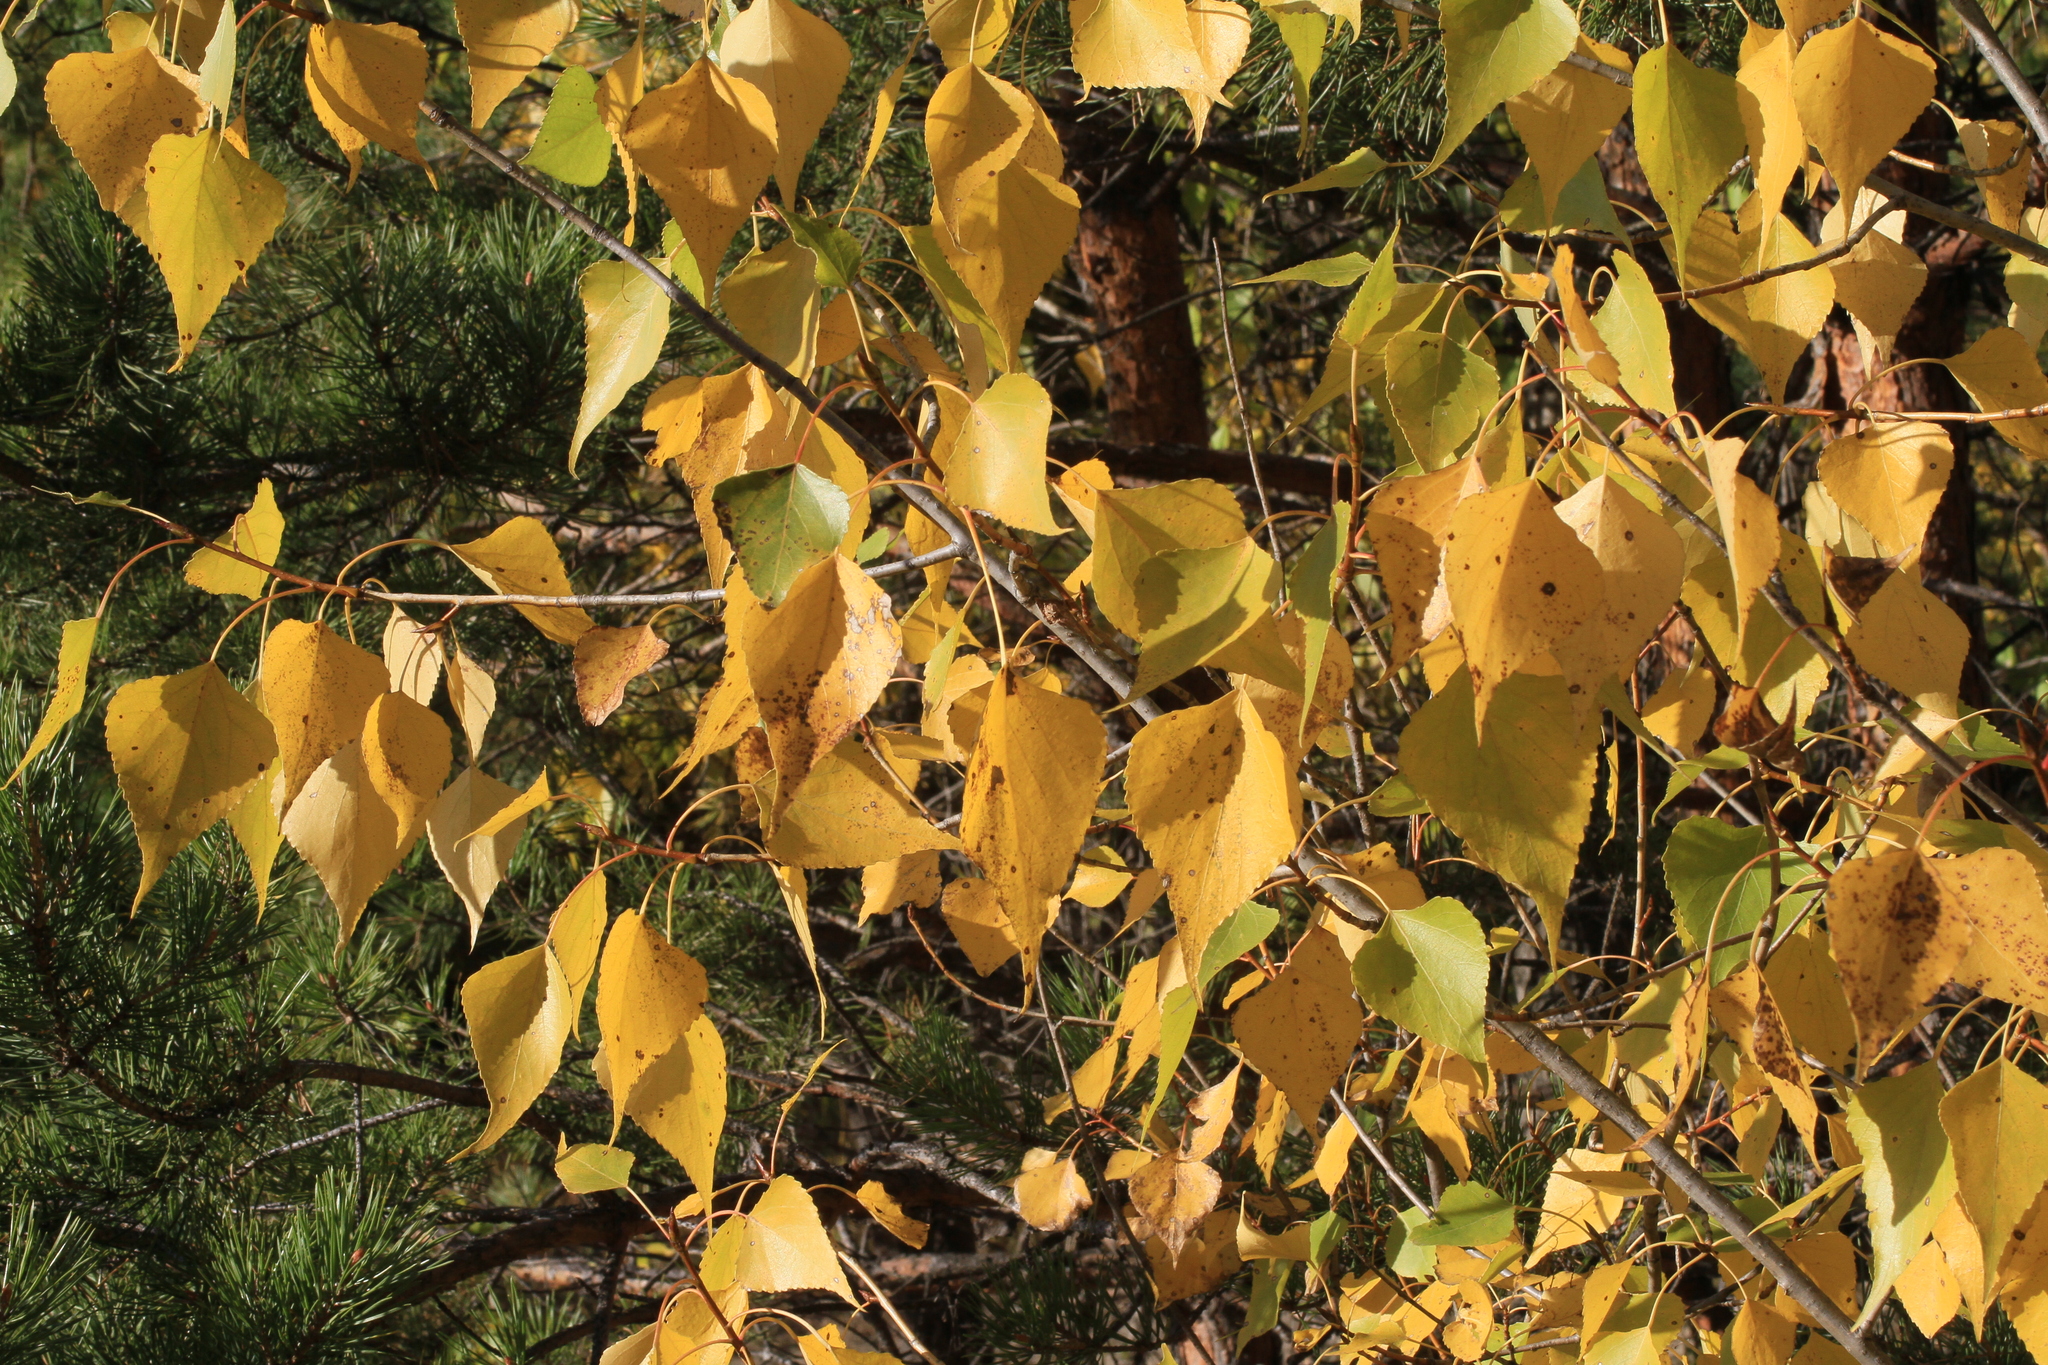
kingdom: Plantae
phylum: Tracheophyta
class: Magnoliopsida
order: Fagales
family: Betulaceae
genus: Betula
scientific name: Betula pendula
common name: Silver birch
